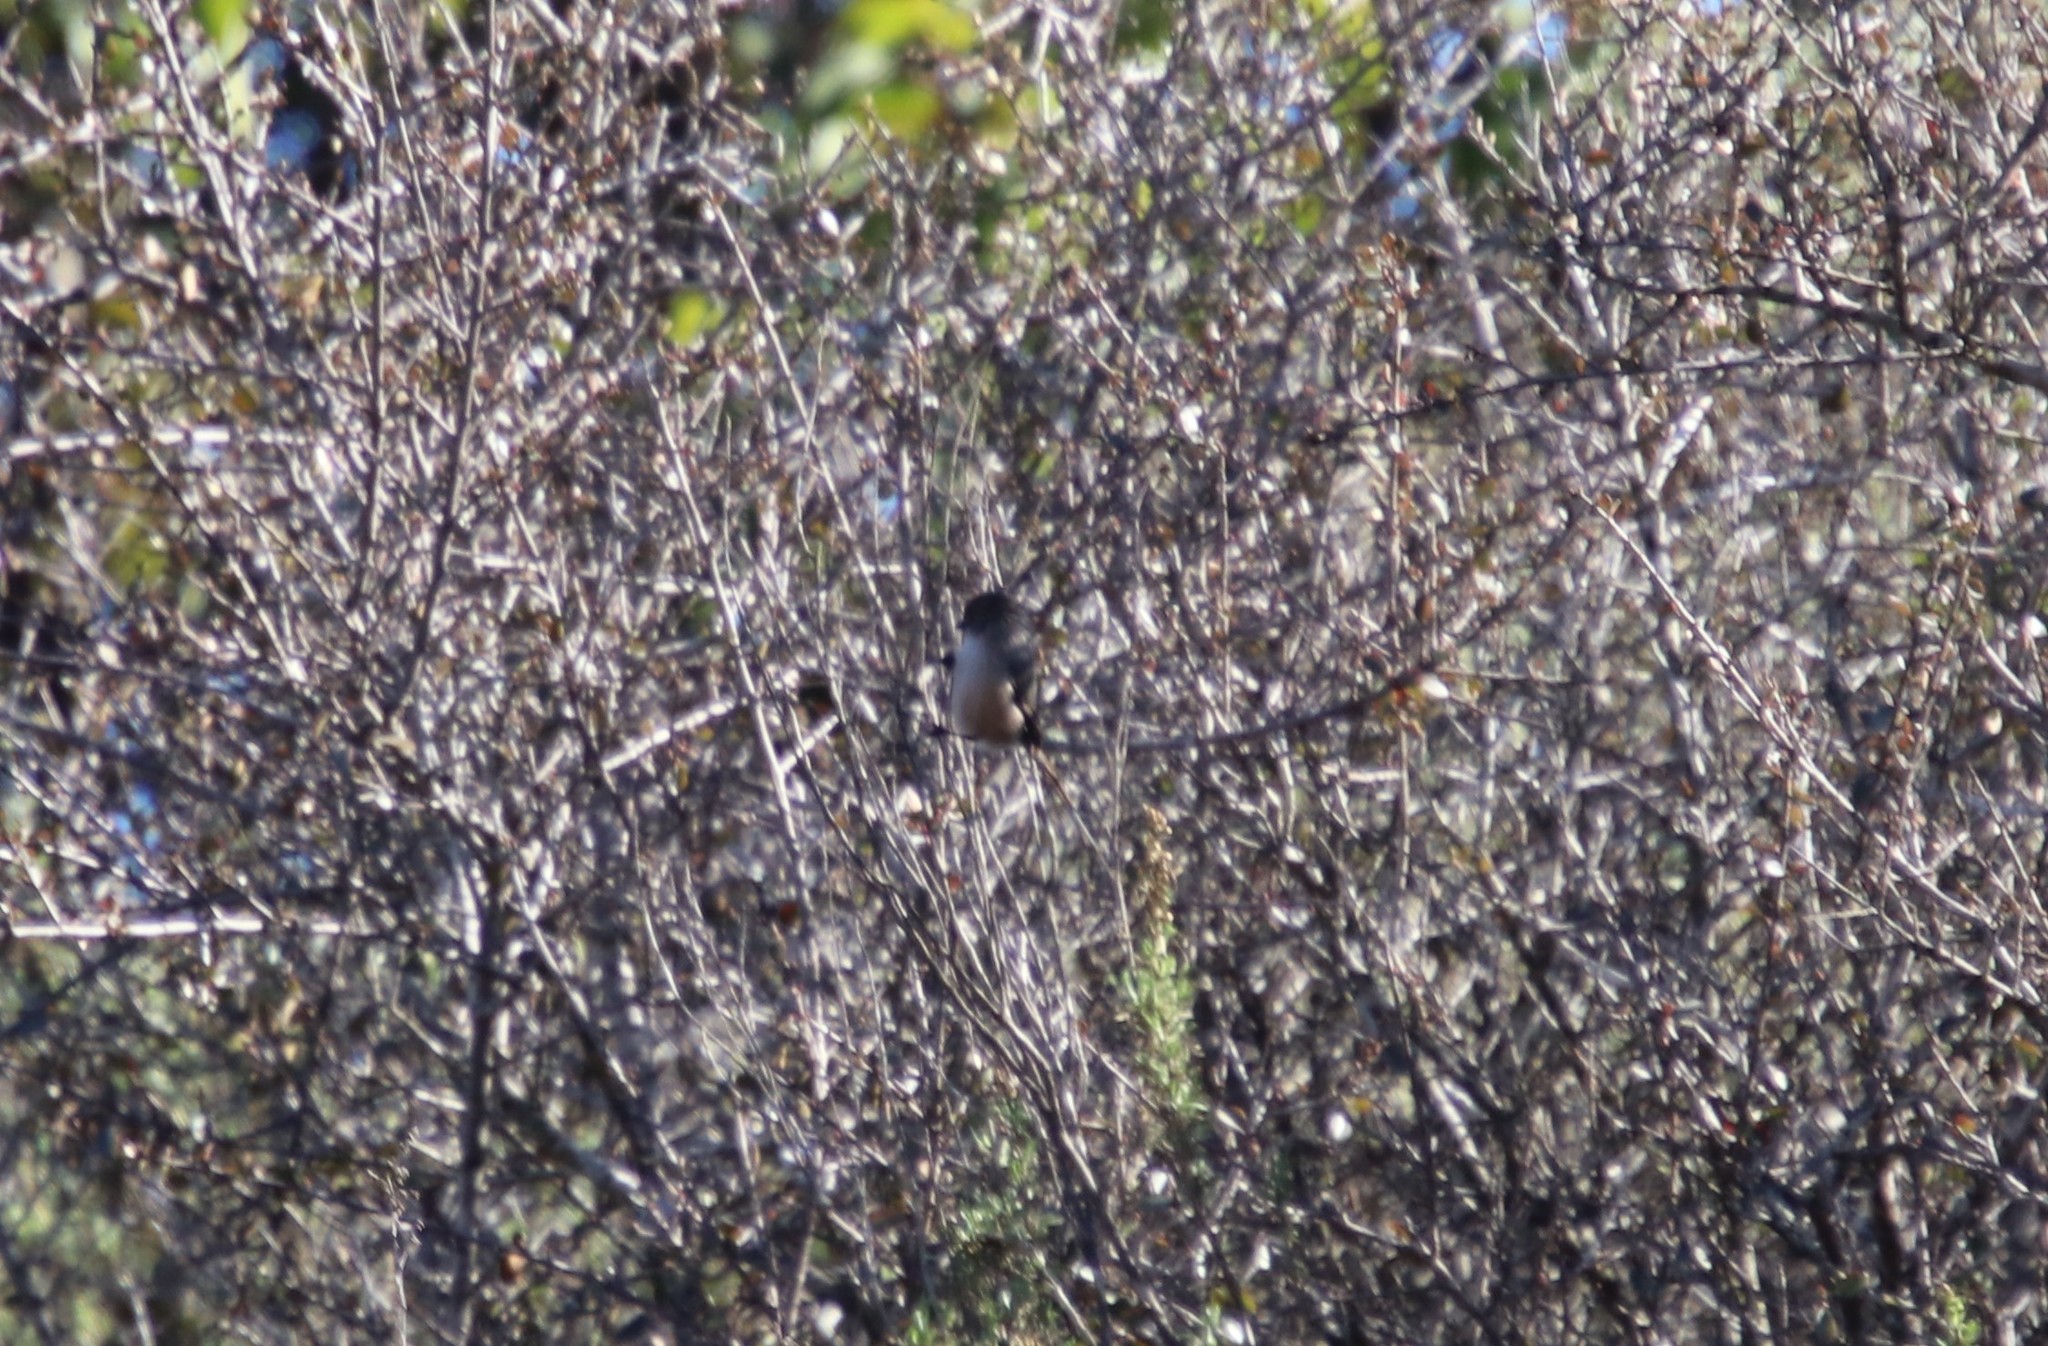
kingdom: Animalia
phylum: Chordata
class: Aves
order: Passeriformes
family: Aegithalidae
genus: Psaltriparus
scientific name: Psaltriparus minimus
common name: American bushtit
